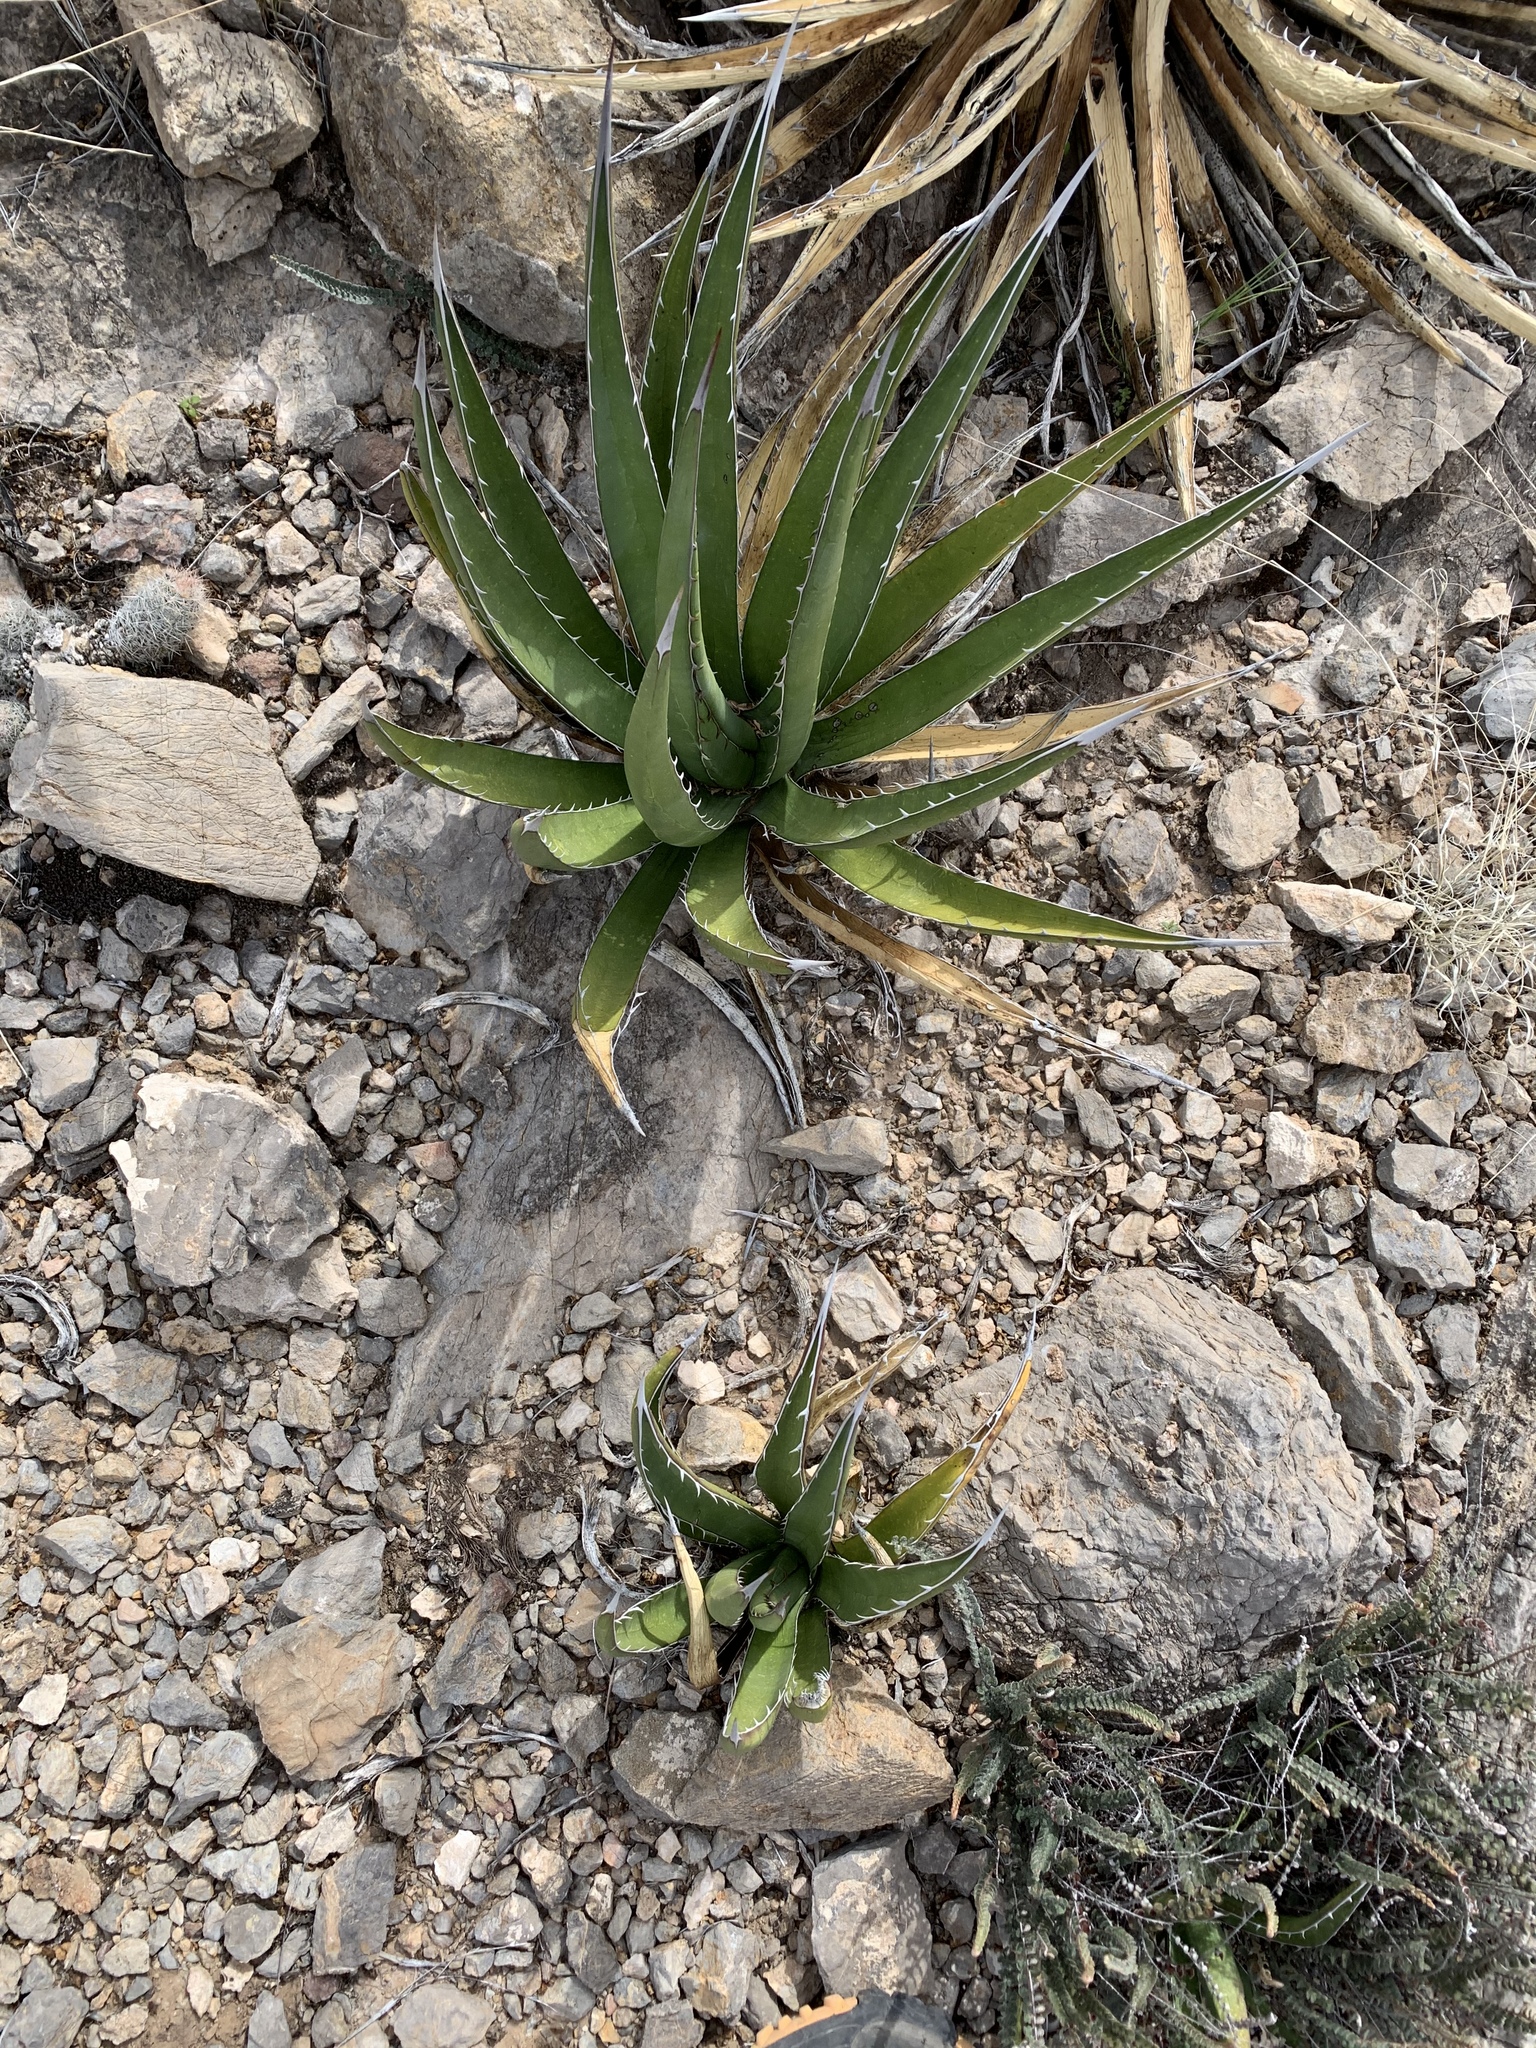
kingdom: Plantae
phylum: Tracheophyta
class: Liliopsida
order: Asparagales
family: Asparagaceae
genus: Agave
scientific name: Agave lechuguilla
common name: Lecheguilla agave
